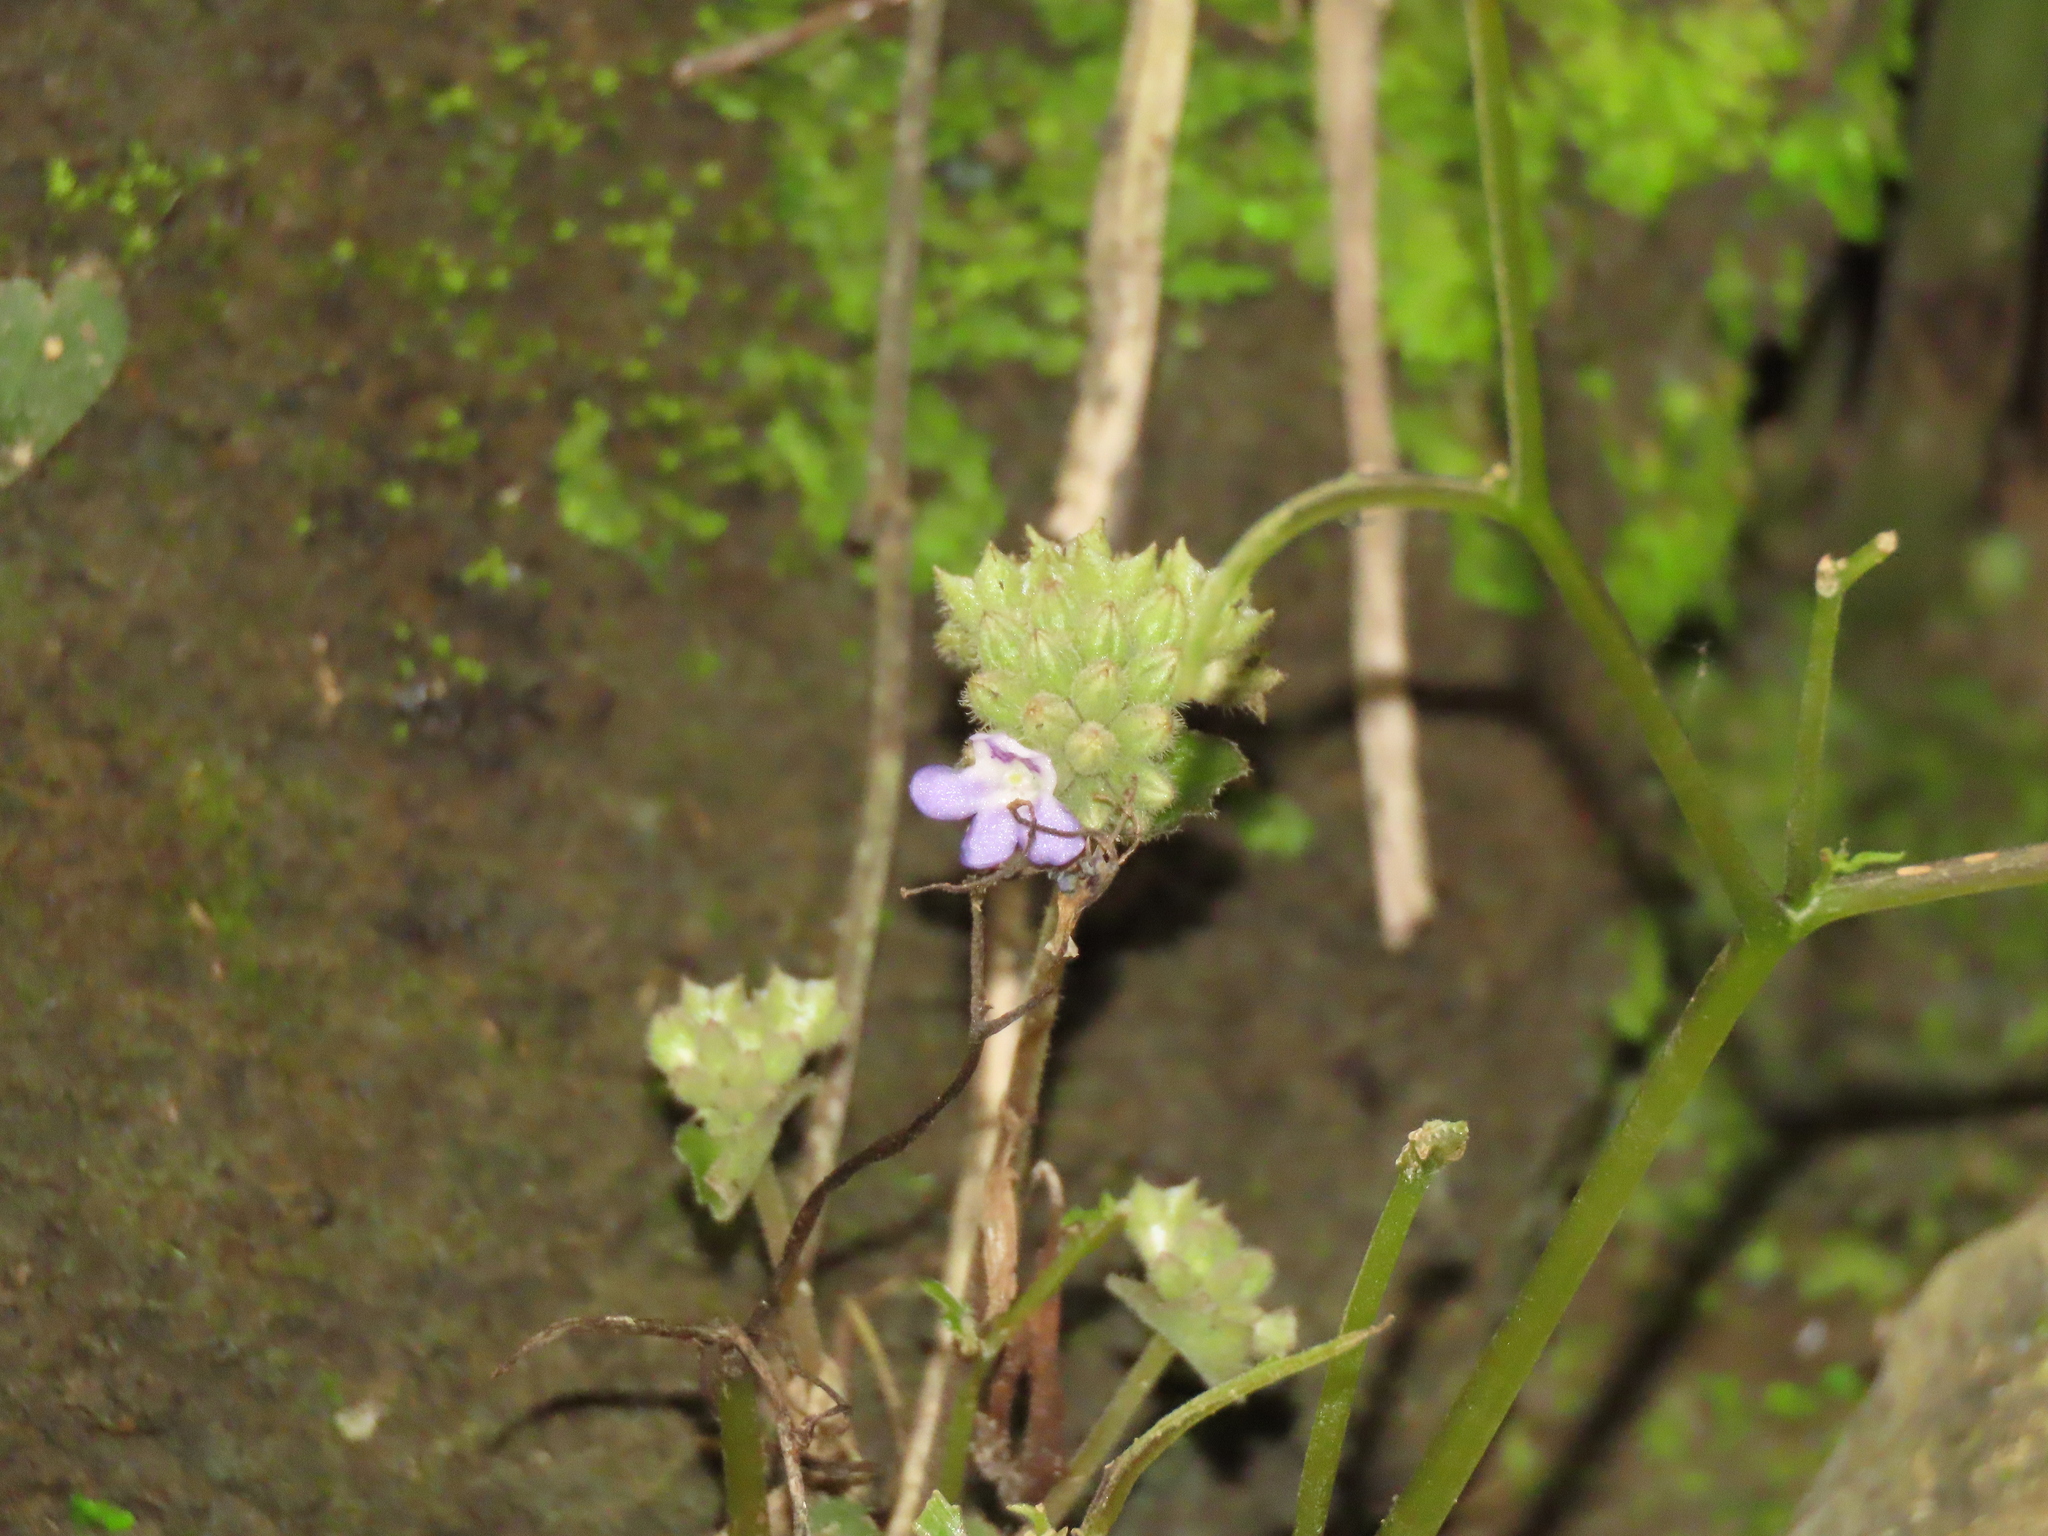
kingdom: Plantae
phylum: Tracheophyta
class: Magnoliopsida
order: Lamiales
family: Gesneriaceae
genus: Epithema
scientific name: Epithema ceylanicum
